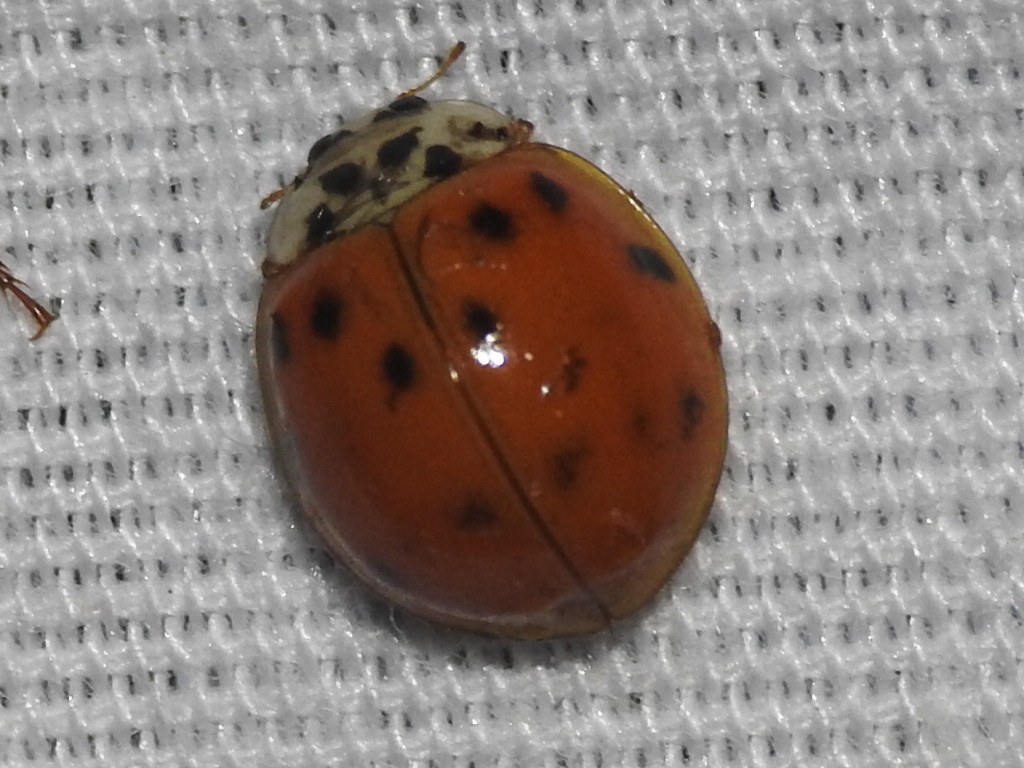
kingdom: Animalia
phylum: Arthropoda
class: Insecta
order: Coleoptera
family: Coccinellidae
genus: Harmonia
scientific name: Harmonia axyridis
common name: Harlequin ladybird
